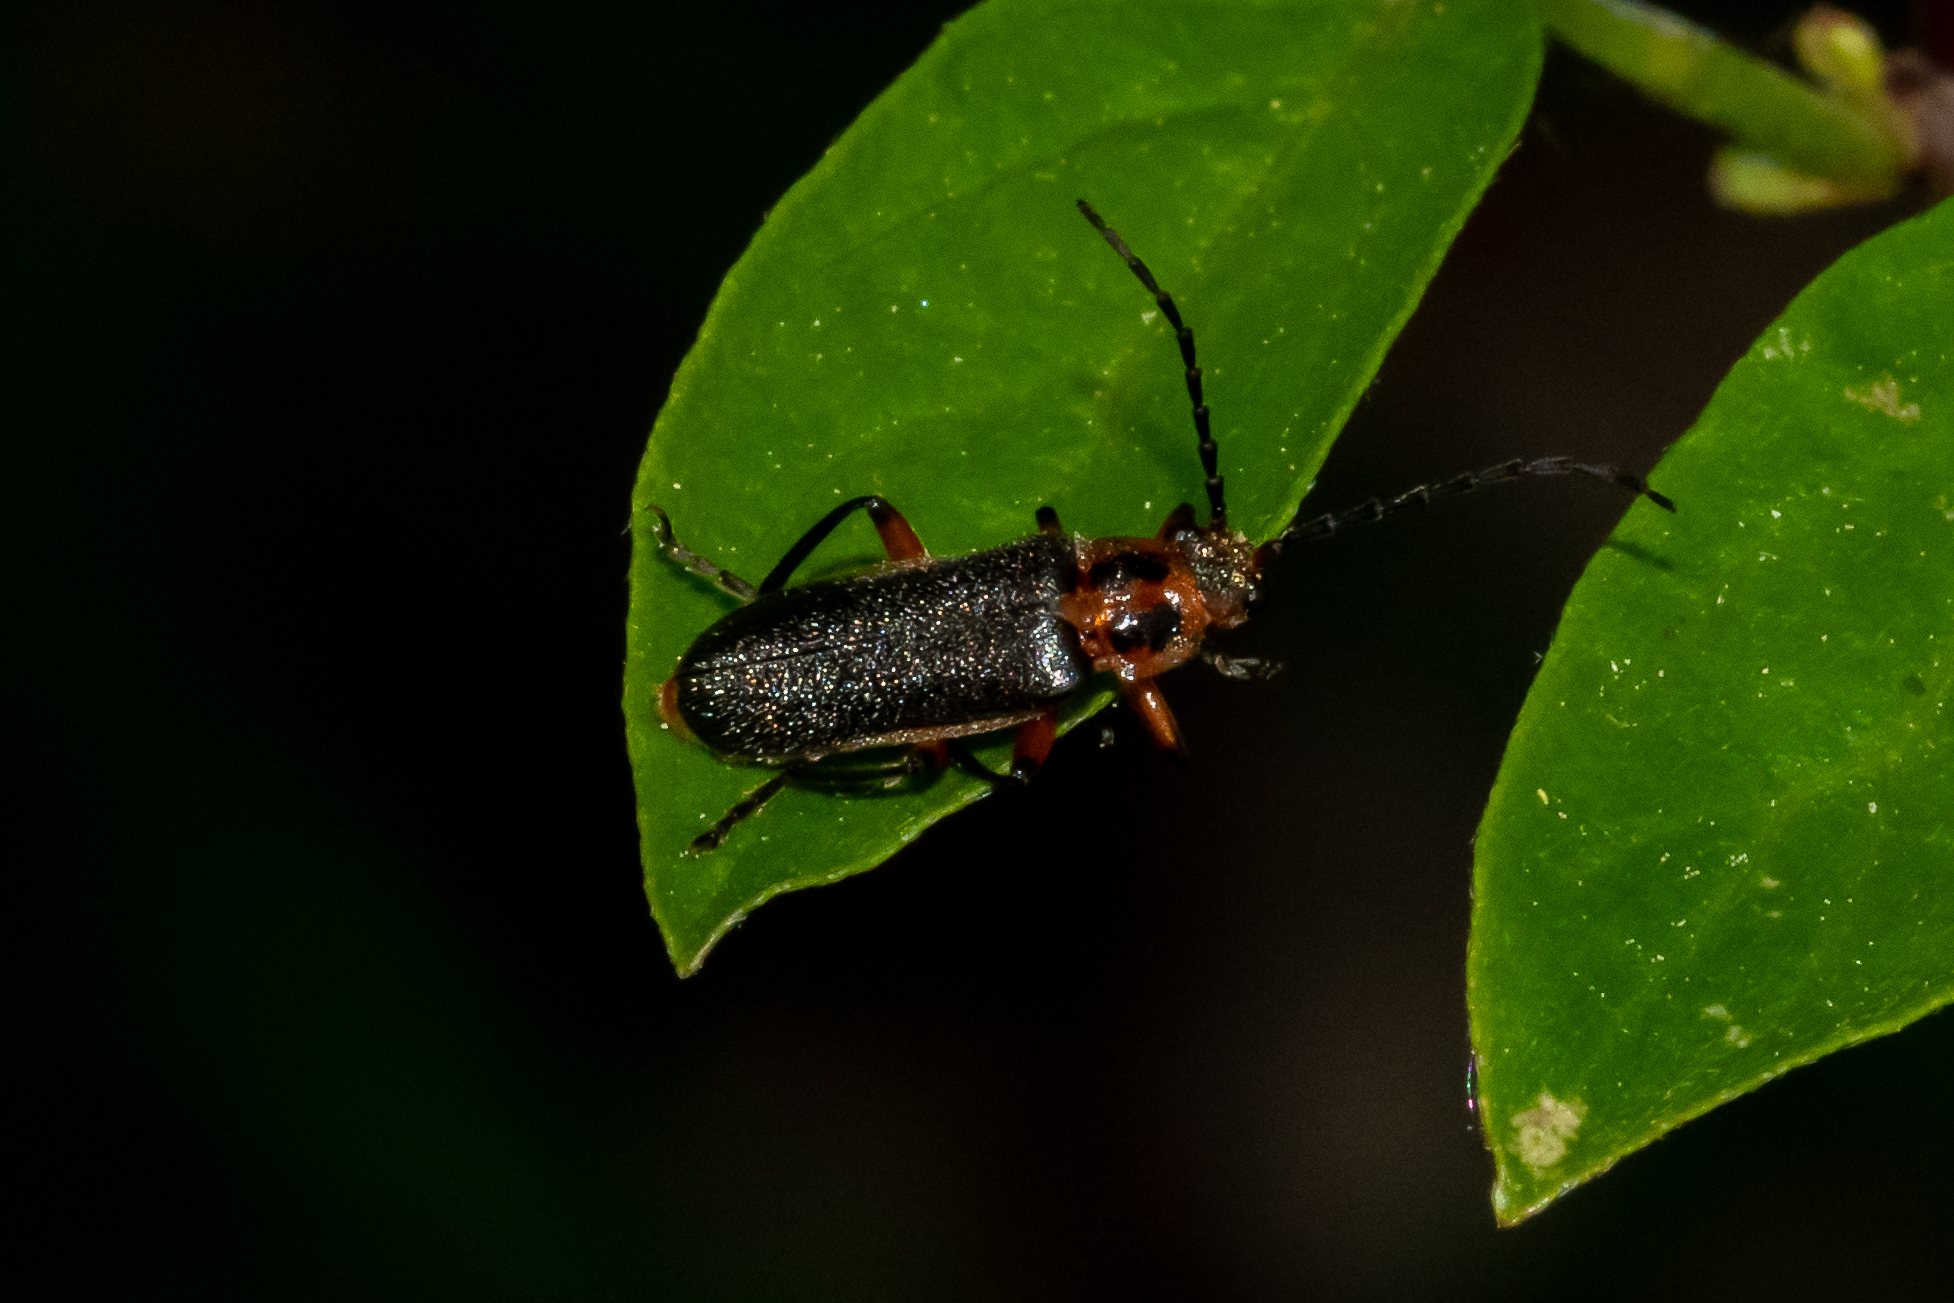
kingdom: Animalia
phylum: Arthropoda
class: Insecta
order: Coleoptera
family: Cantharidae
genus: Atalantycha
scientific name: Atalantycha bilineata
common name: Two-lined leatherwing
